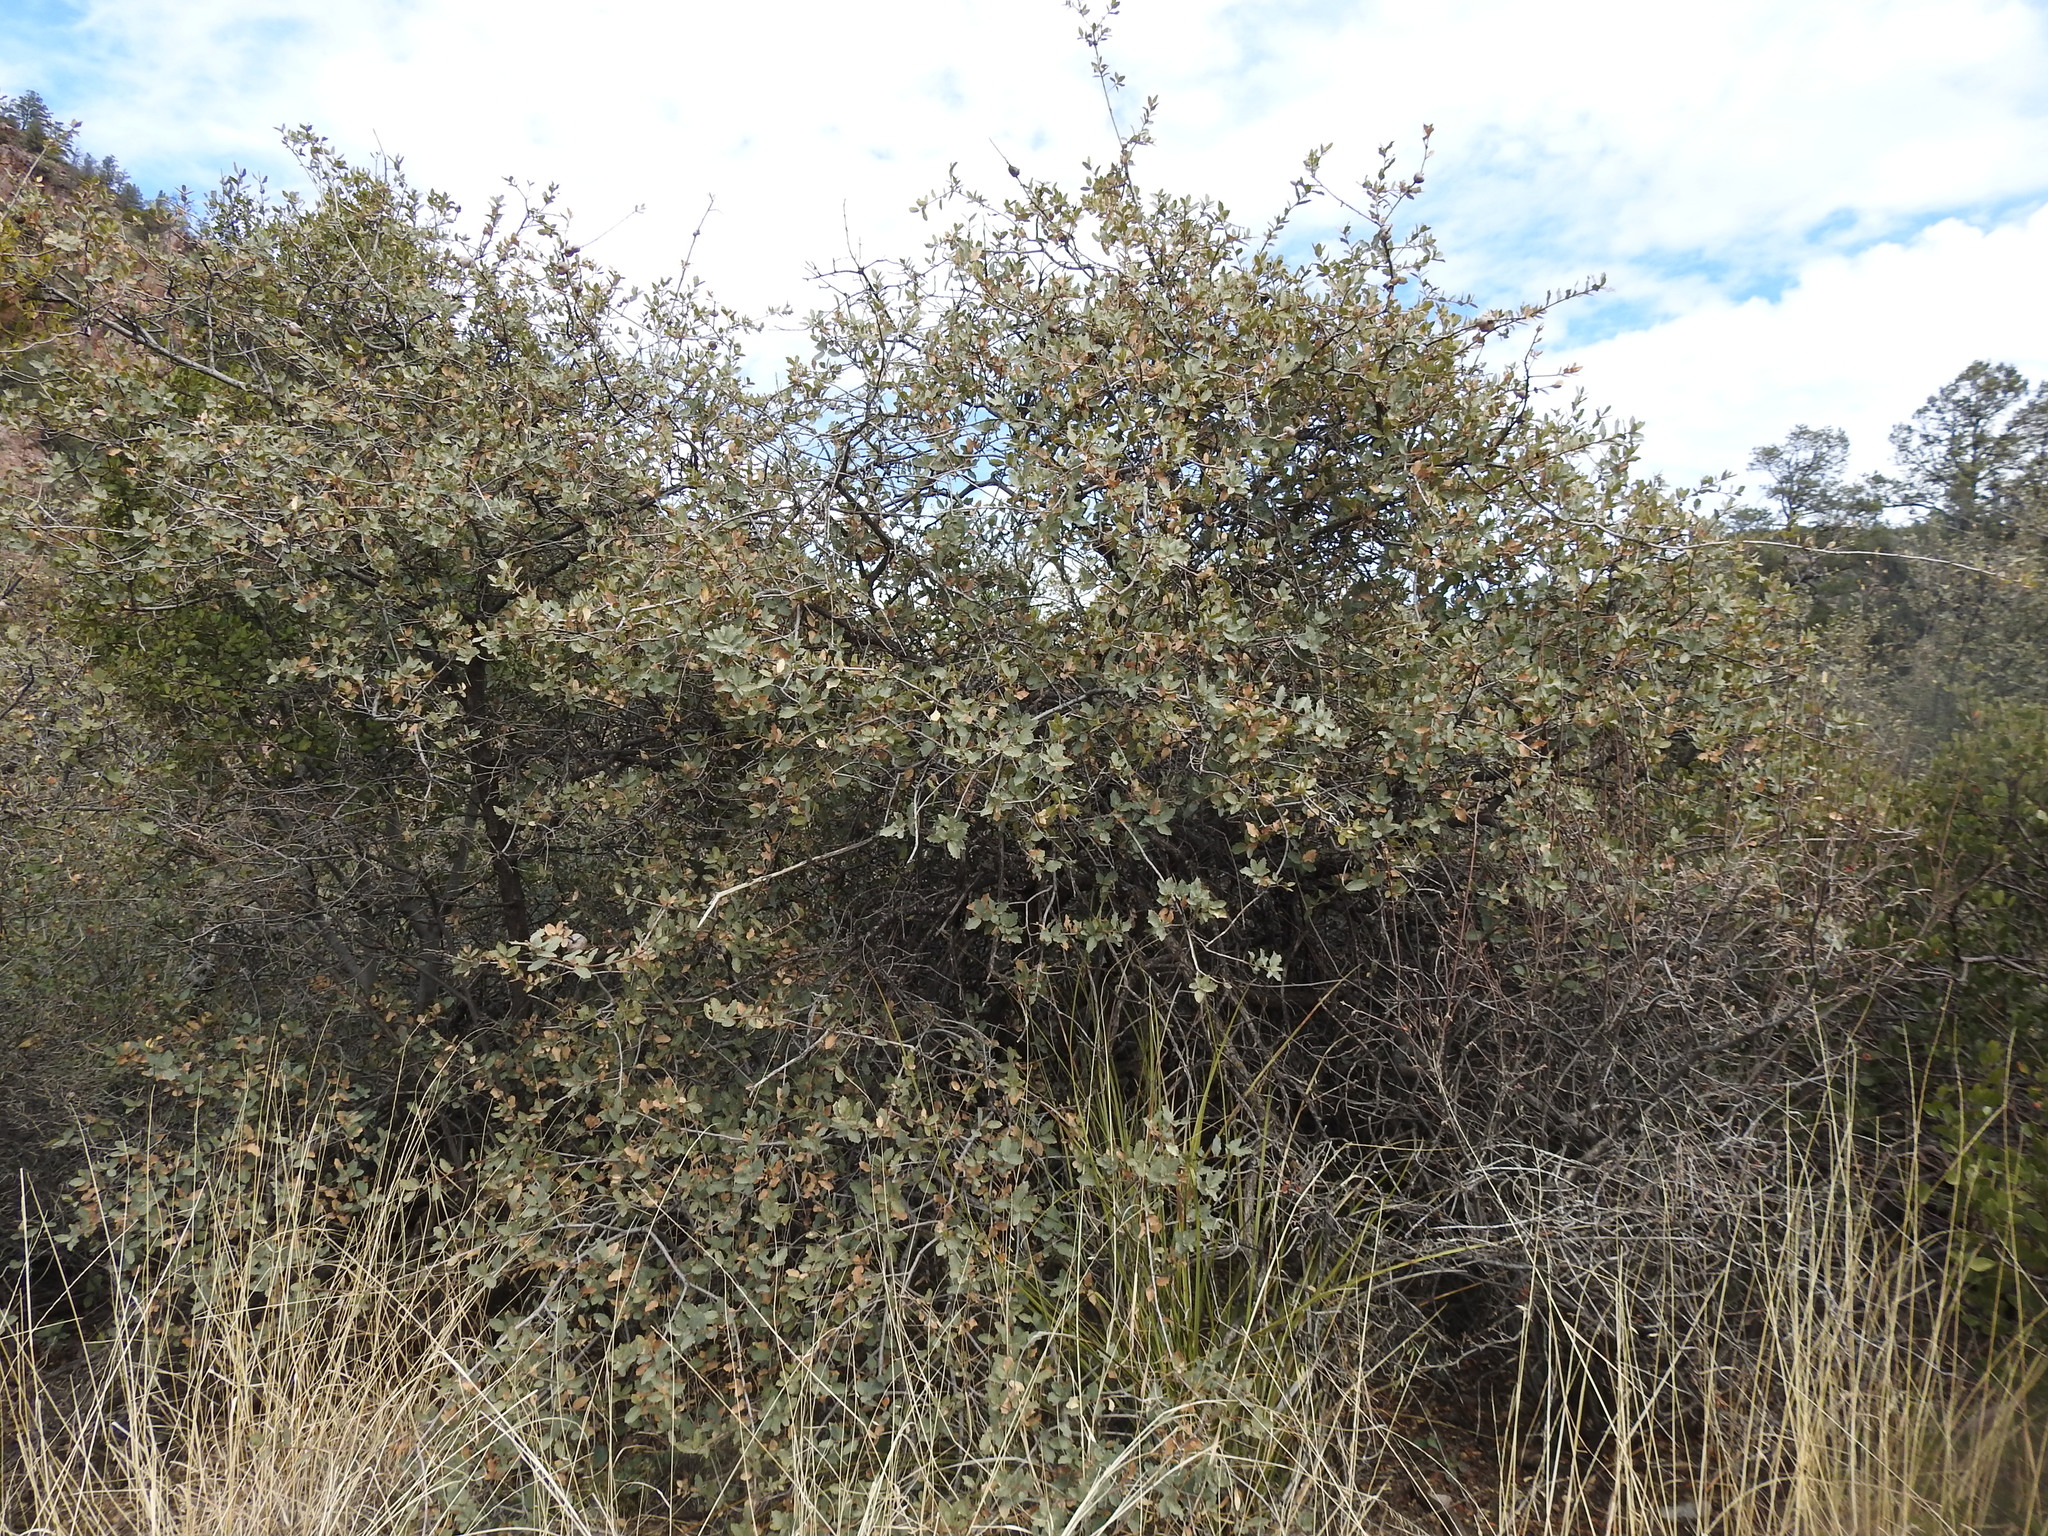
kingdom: Plantae
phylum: Tracheophyta
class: Magnoliopsida
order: Fagales
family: Fagaceae
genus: Quercus
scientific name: Quercus turbinella
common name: Sonoran scrub oak
